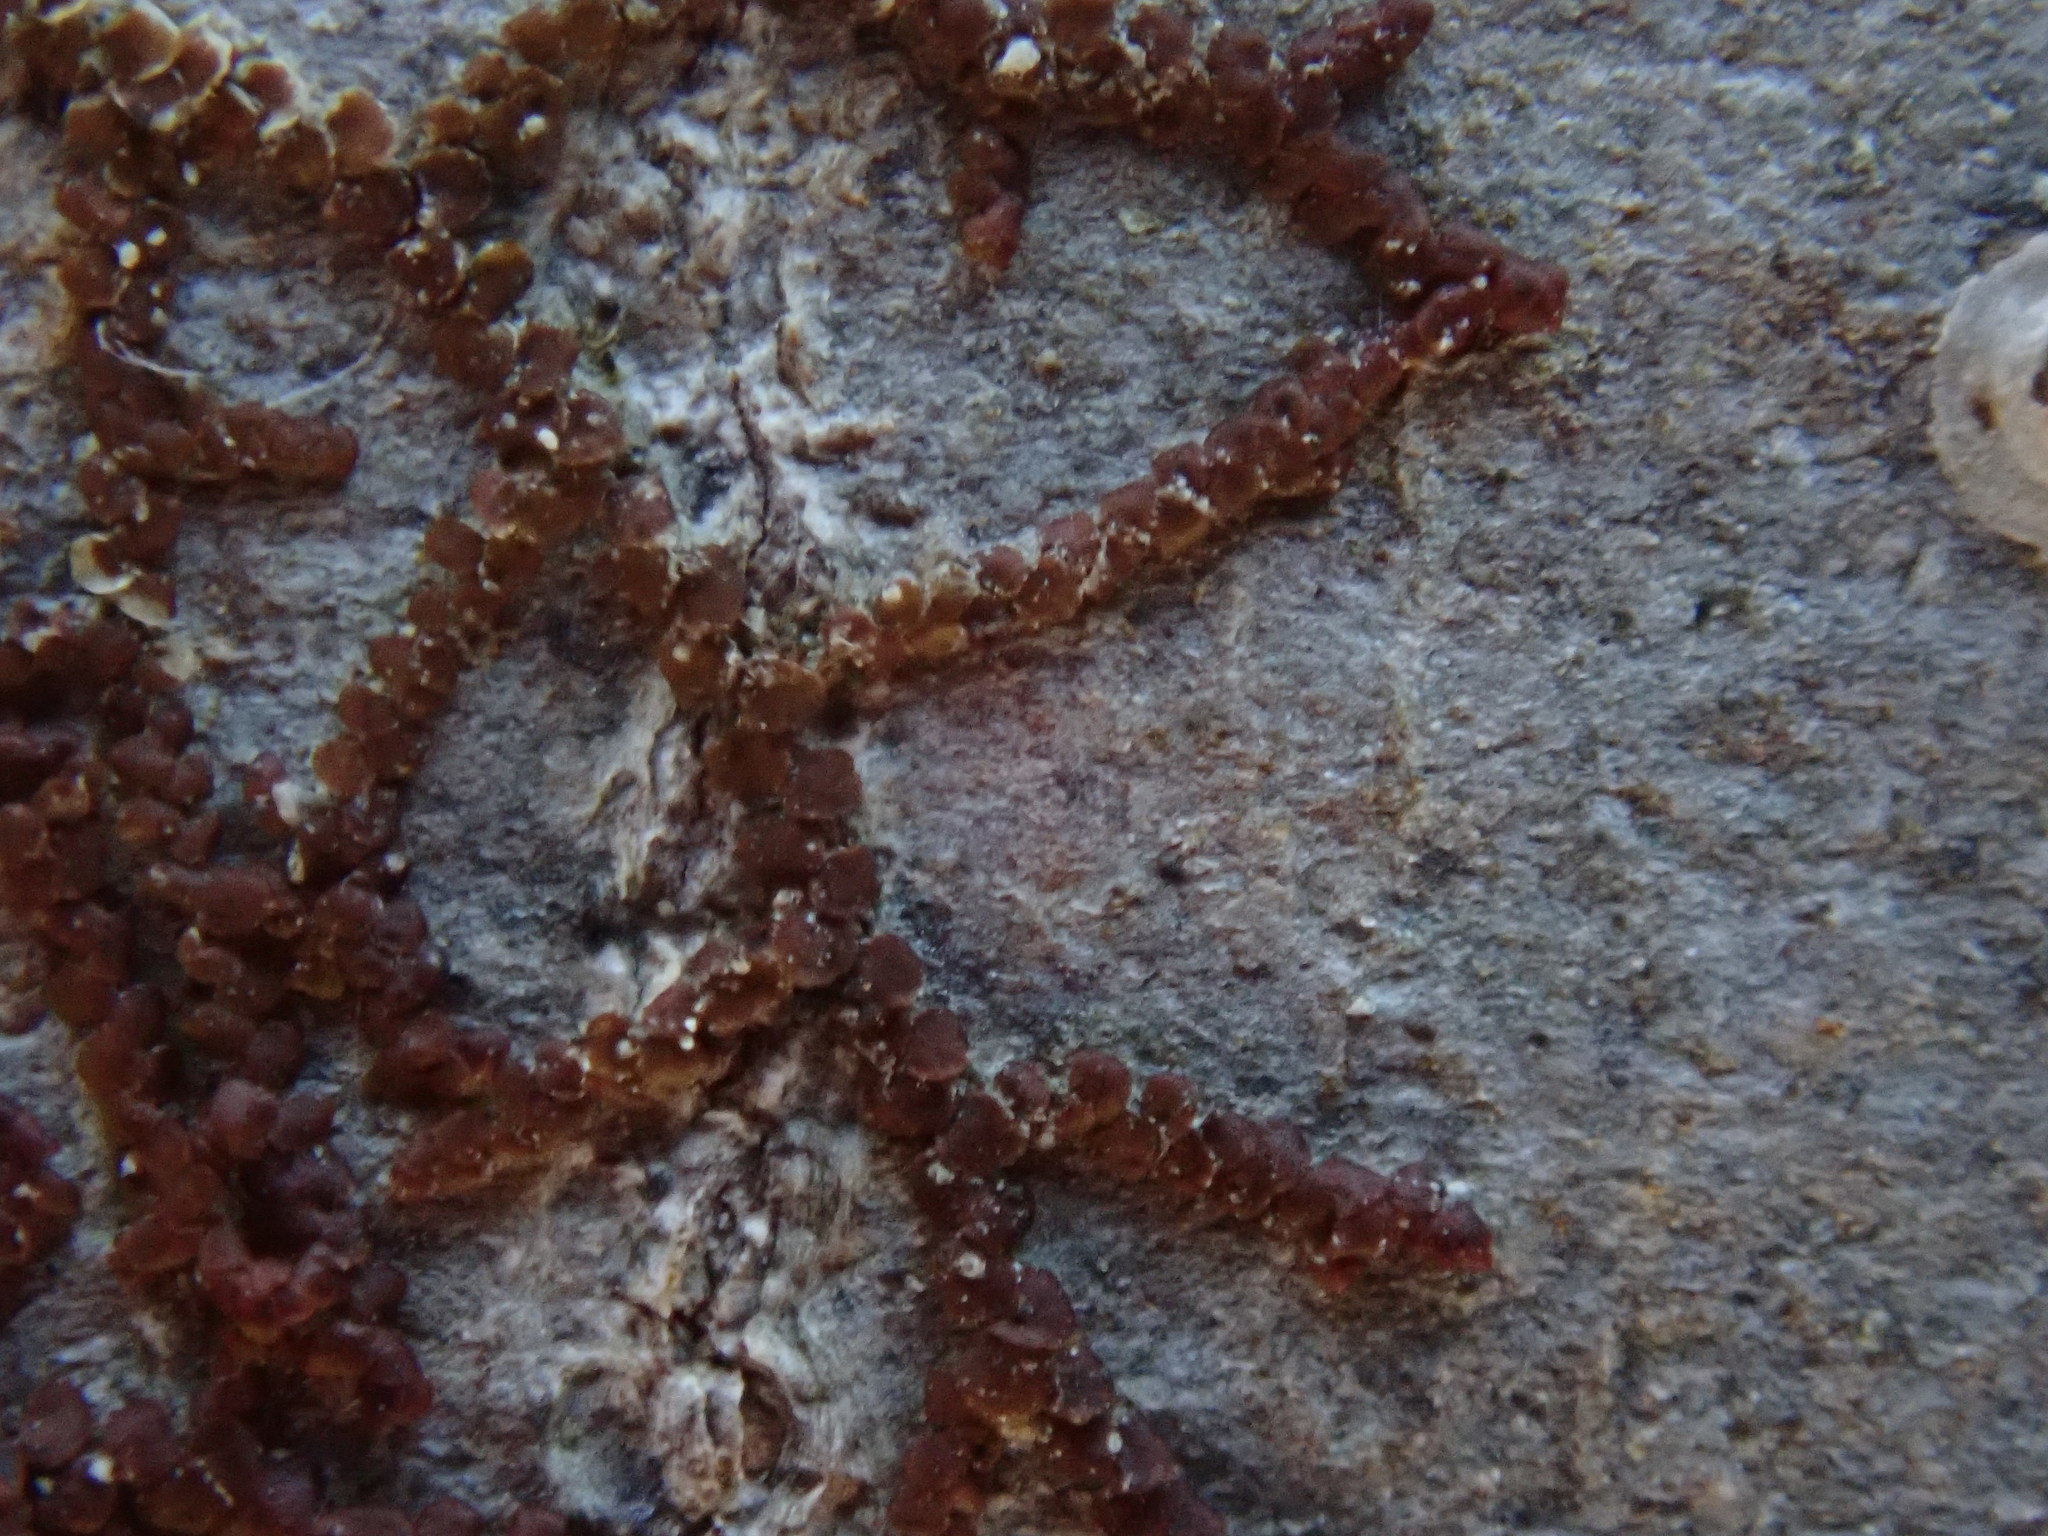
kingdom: Plantae
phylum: Marchantiophyta
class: Jungermanniopsida
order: Porellales
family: Frullaniaceae
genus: Frullania
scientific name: Frullania
